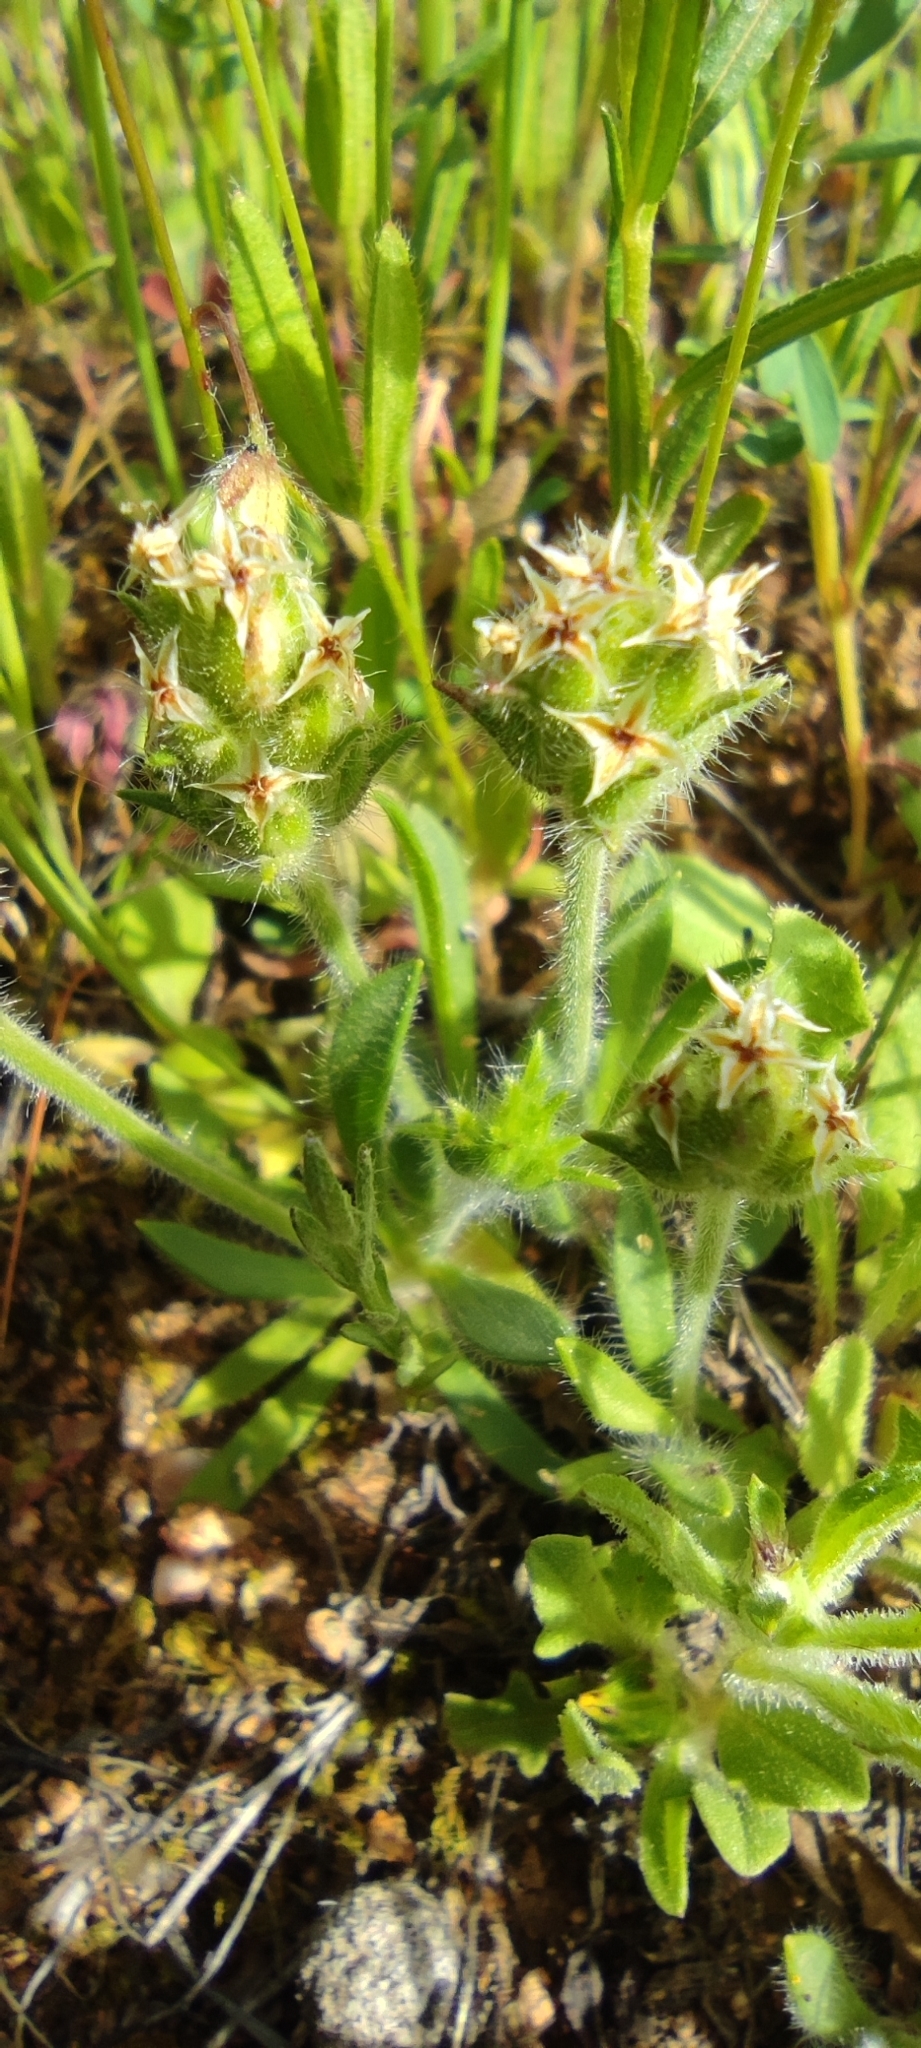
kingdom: Plantae
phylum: Tracheophyta
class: Magnoliopsida
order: Lamiales
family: Plantaginaceae
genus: Plantago
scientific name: Plantago bellardii
